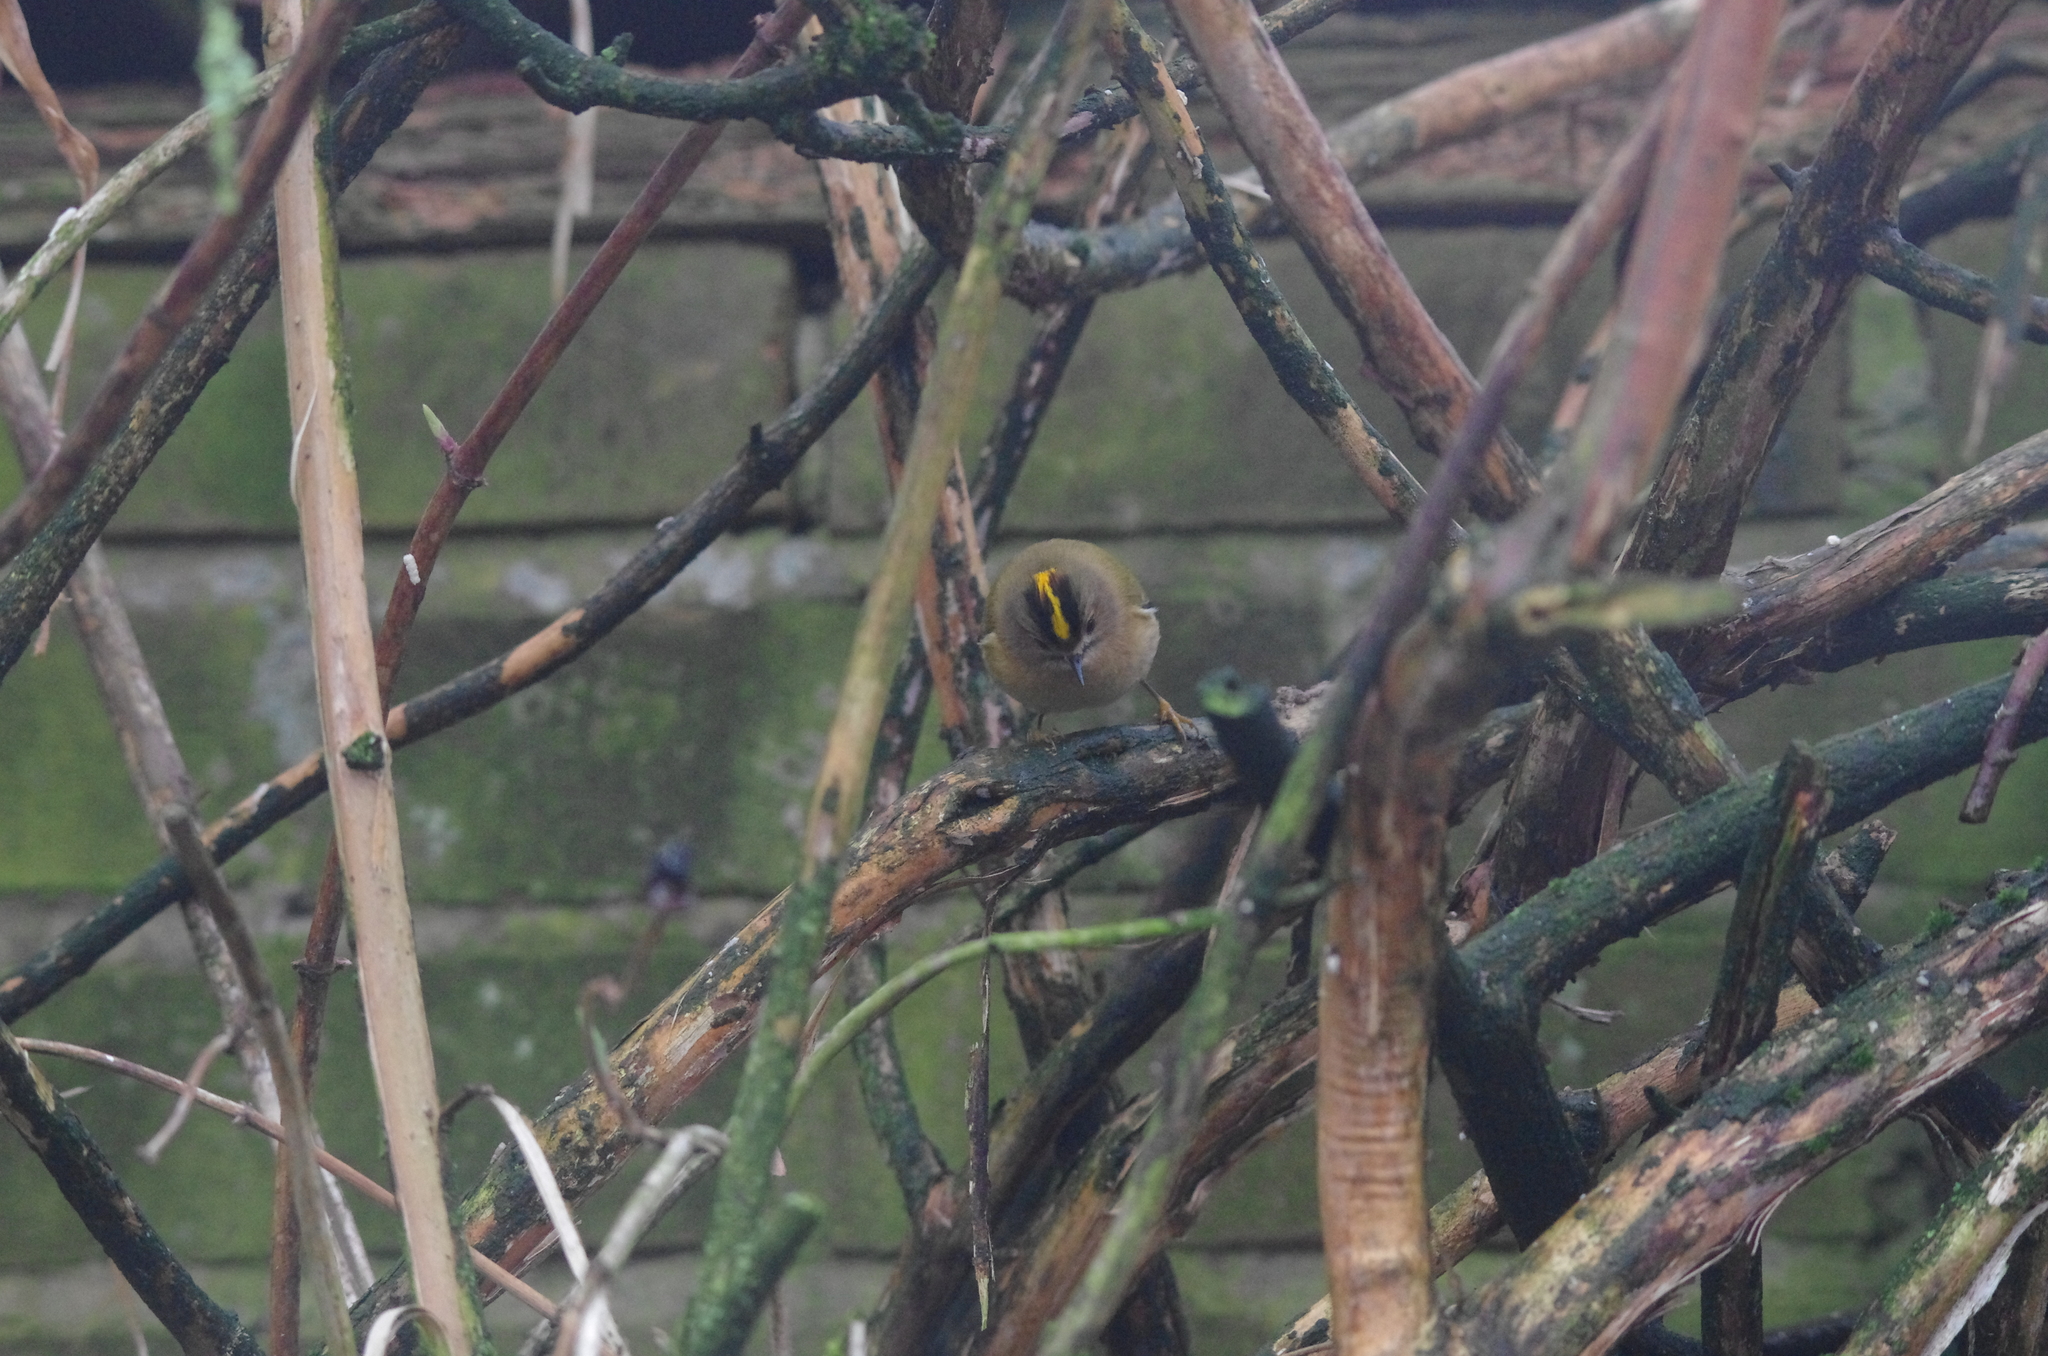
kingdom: Animalia
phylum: Chordata
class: Aves
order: Passeriformes
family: Regulidae
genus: Regulus
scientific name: Regulus regulus
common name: Goldcrest
